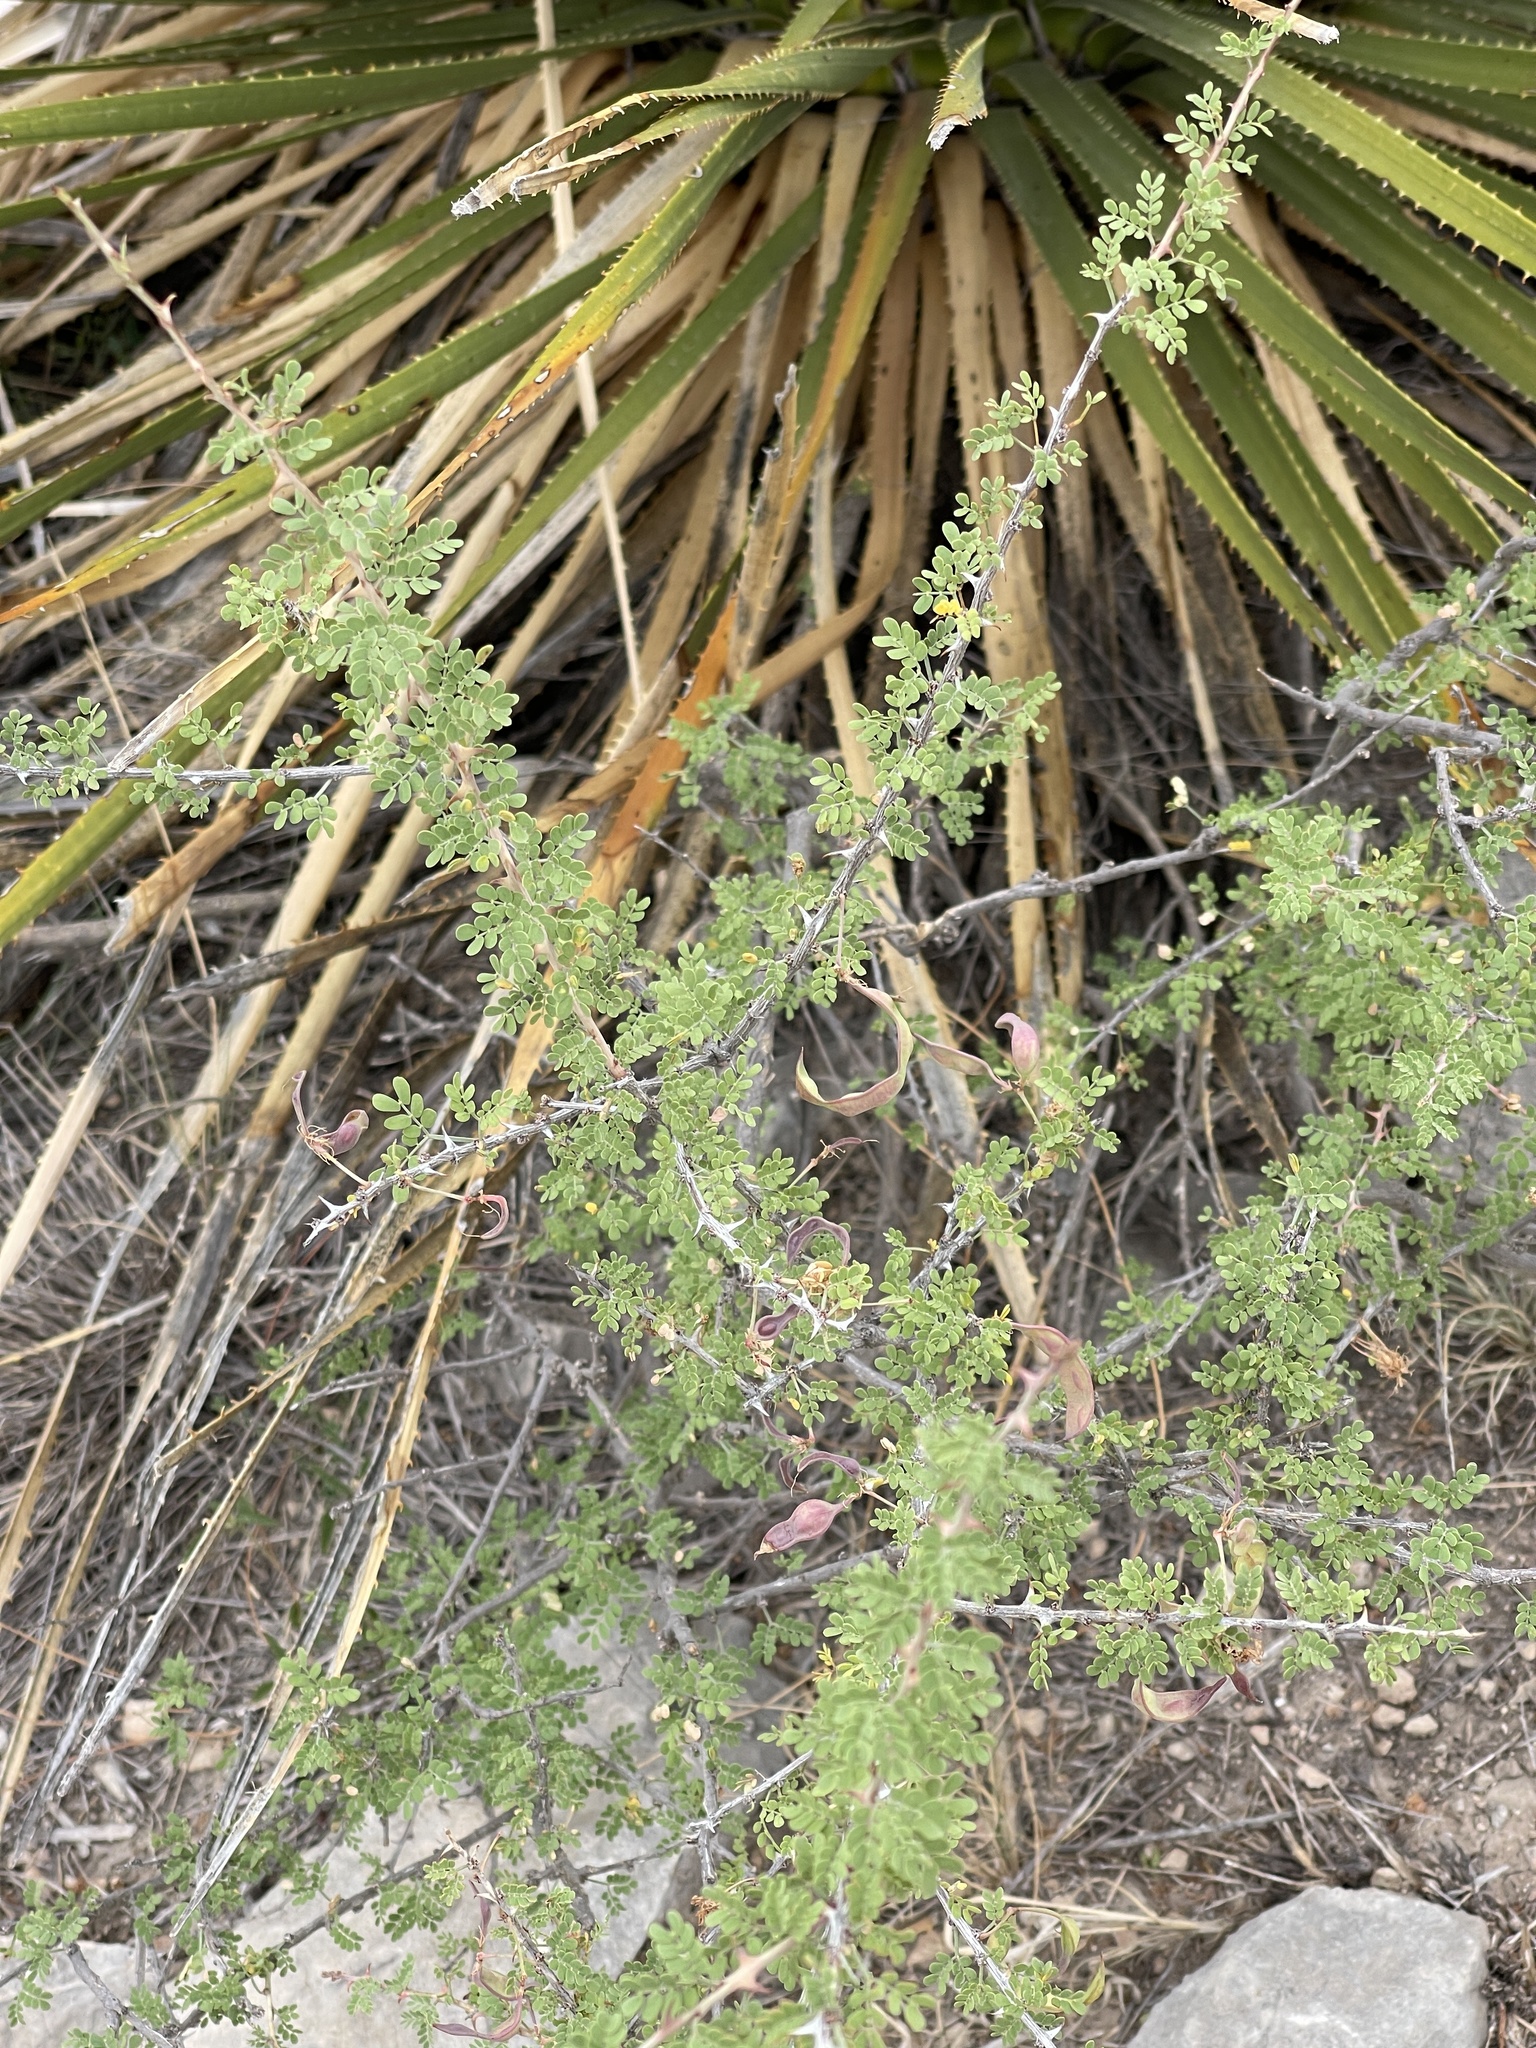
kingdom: Plantae
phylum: Tracheophyta
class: Magnoliopsida
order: Fabales
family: Fabaceae
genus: Mimosa
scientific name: Mimosa borealis
